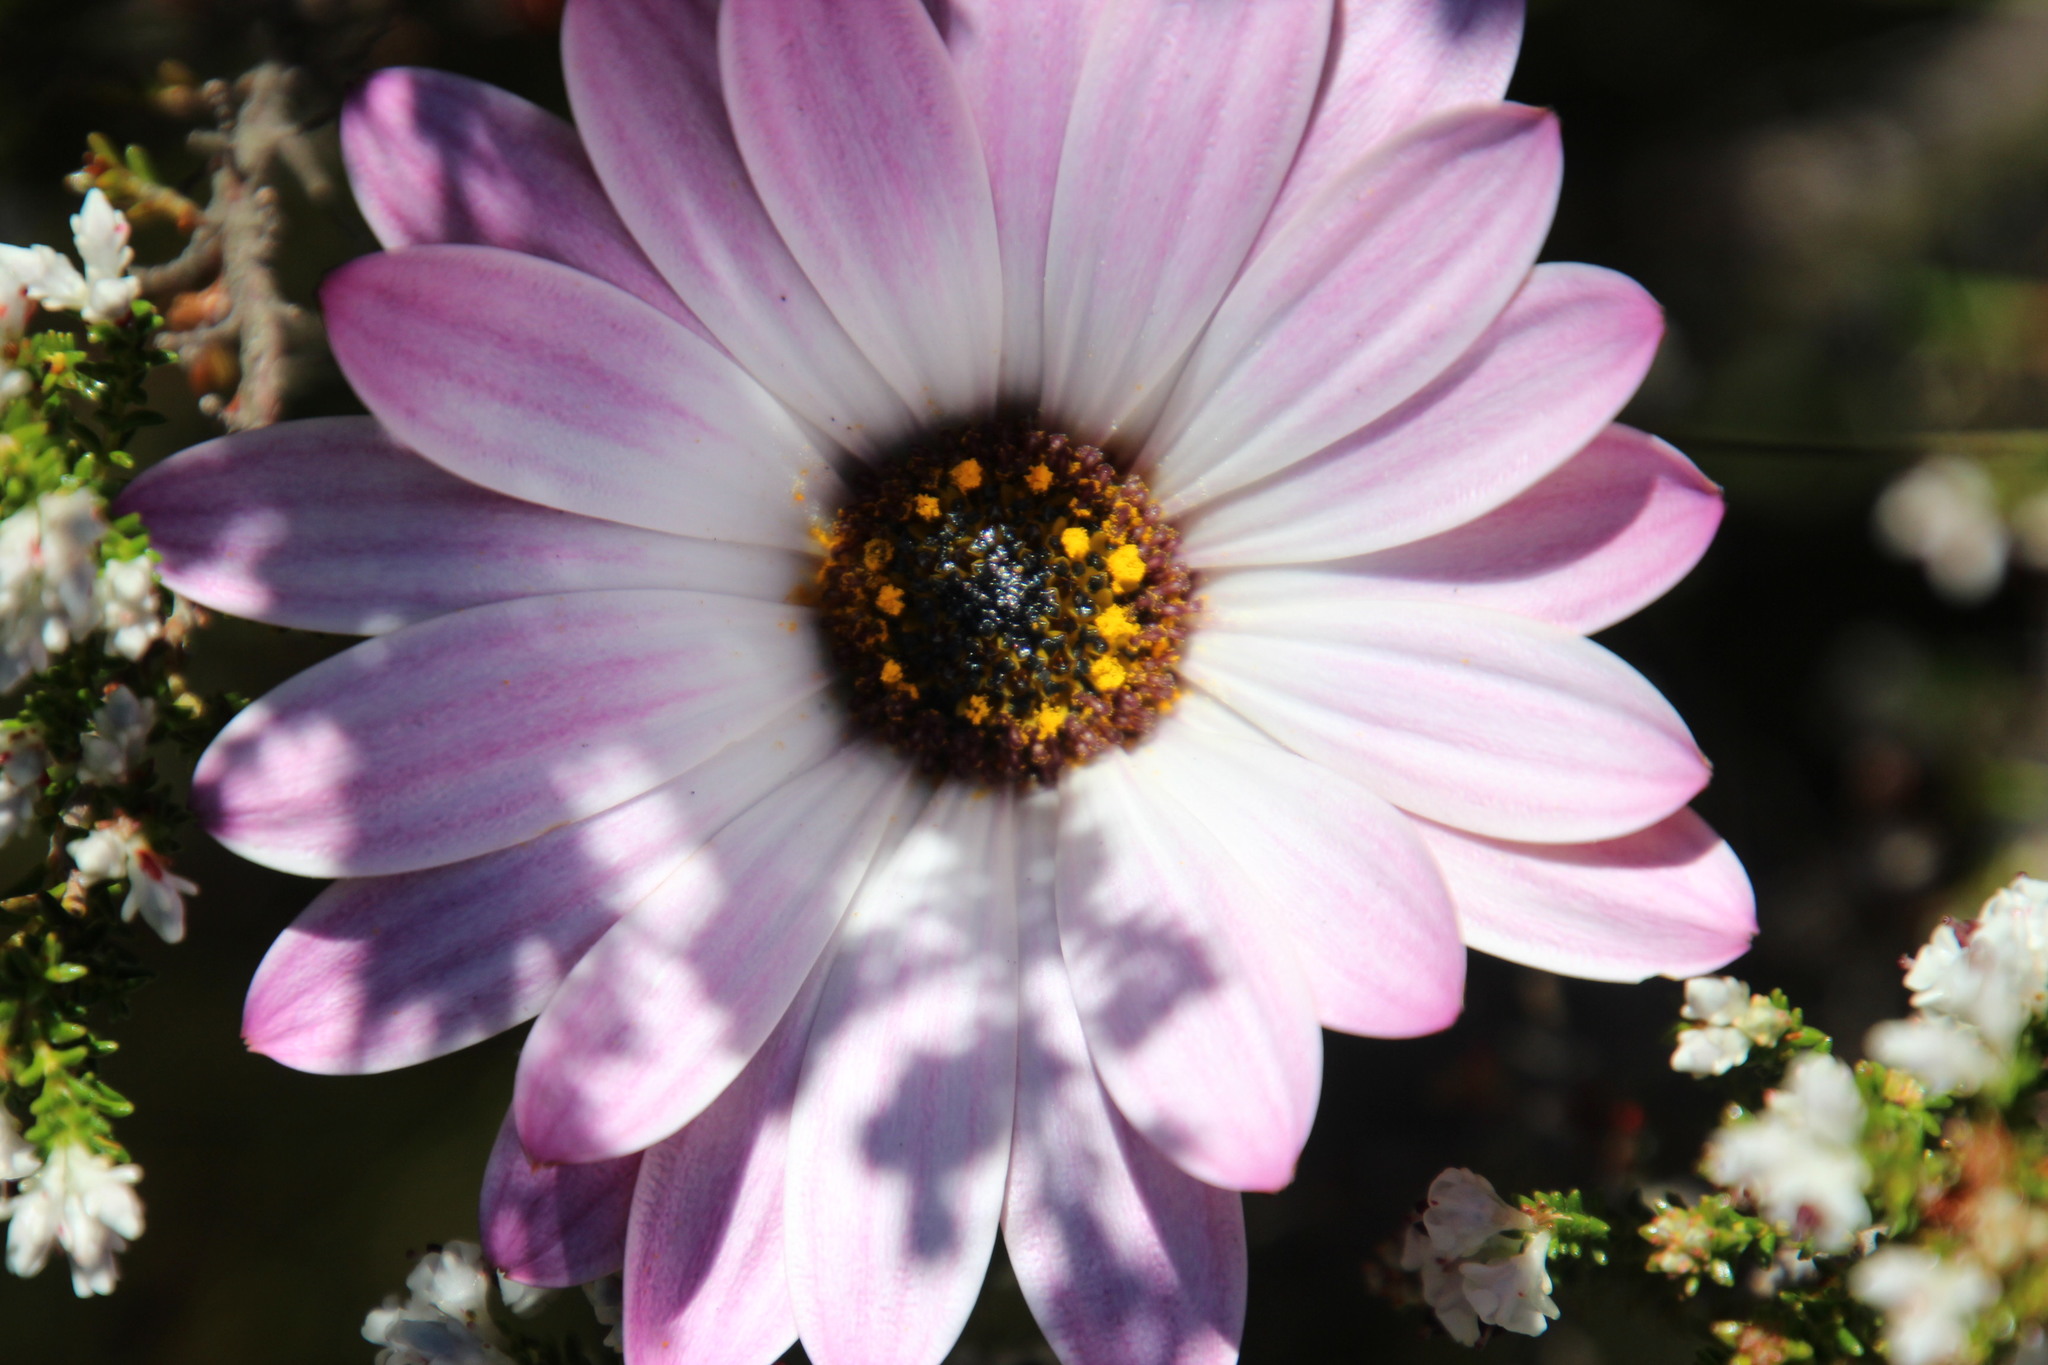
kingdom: Plantae
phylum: Tracheophyta
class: Magnoliopsida
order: Asterales
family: Asteraceae
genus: Dimorphotheca
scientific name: Dimorphotheca nudicaulis
